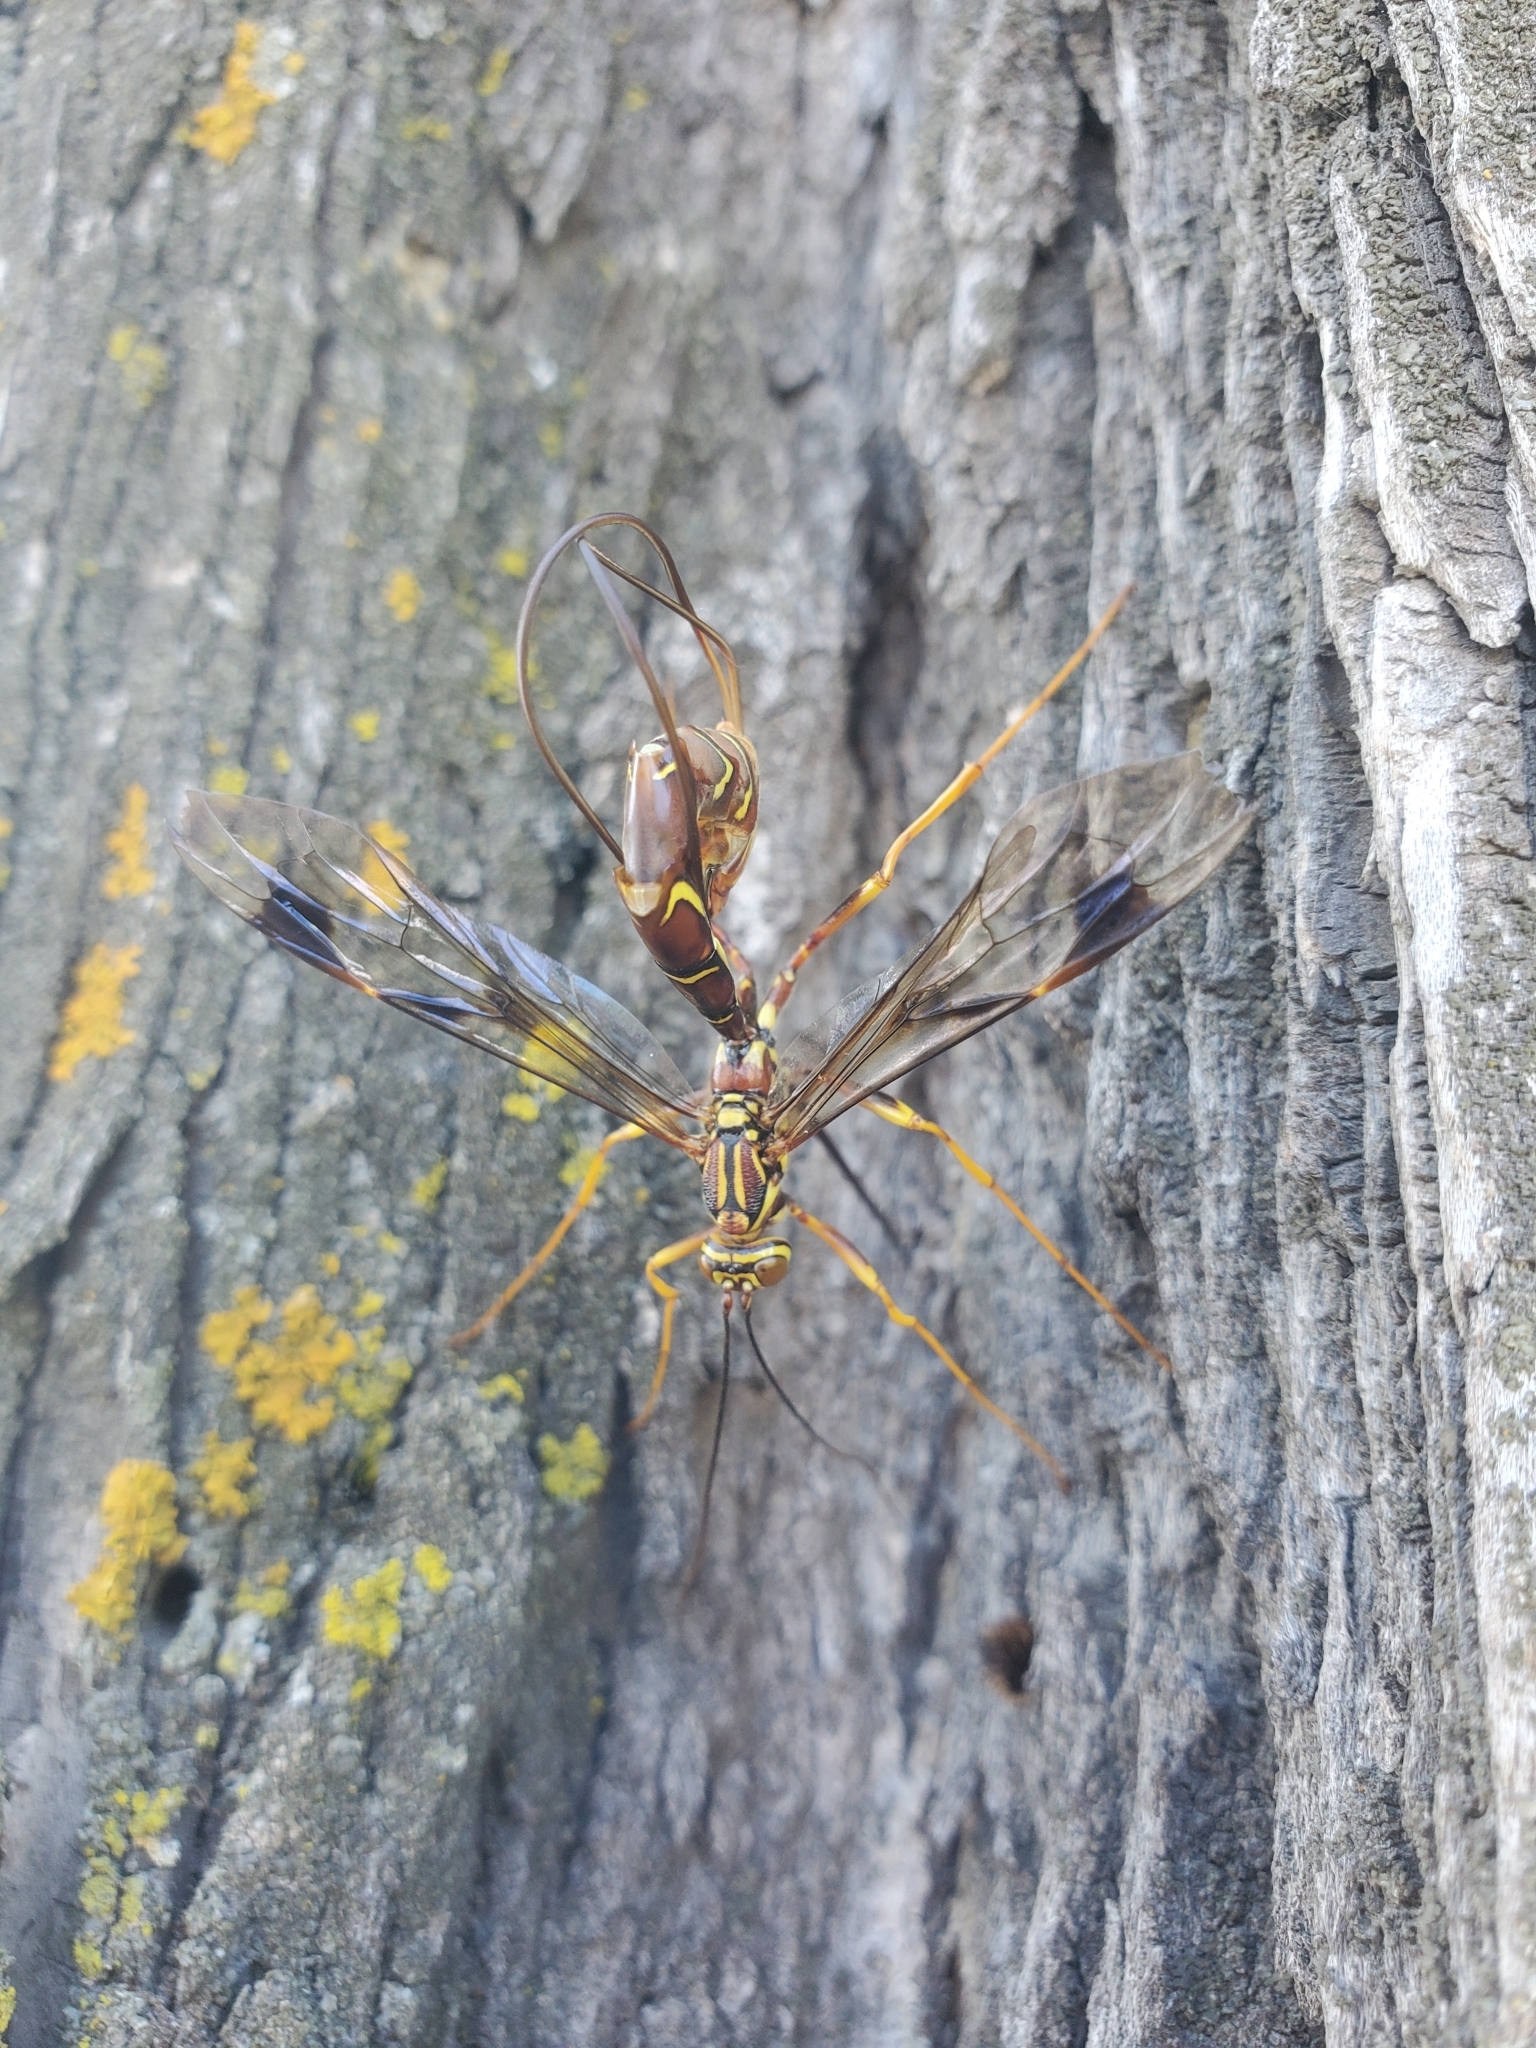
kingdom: Animalia
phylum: Arthropoda
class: Insecta
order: Hymenoptera
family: Ichneumonidae
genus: Megarhyssa
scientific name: Megarhyssa macrura
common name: Long-tailed giant ichneumonid wasp
